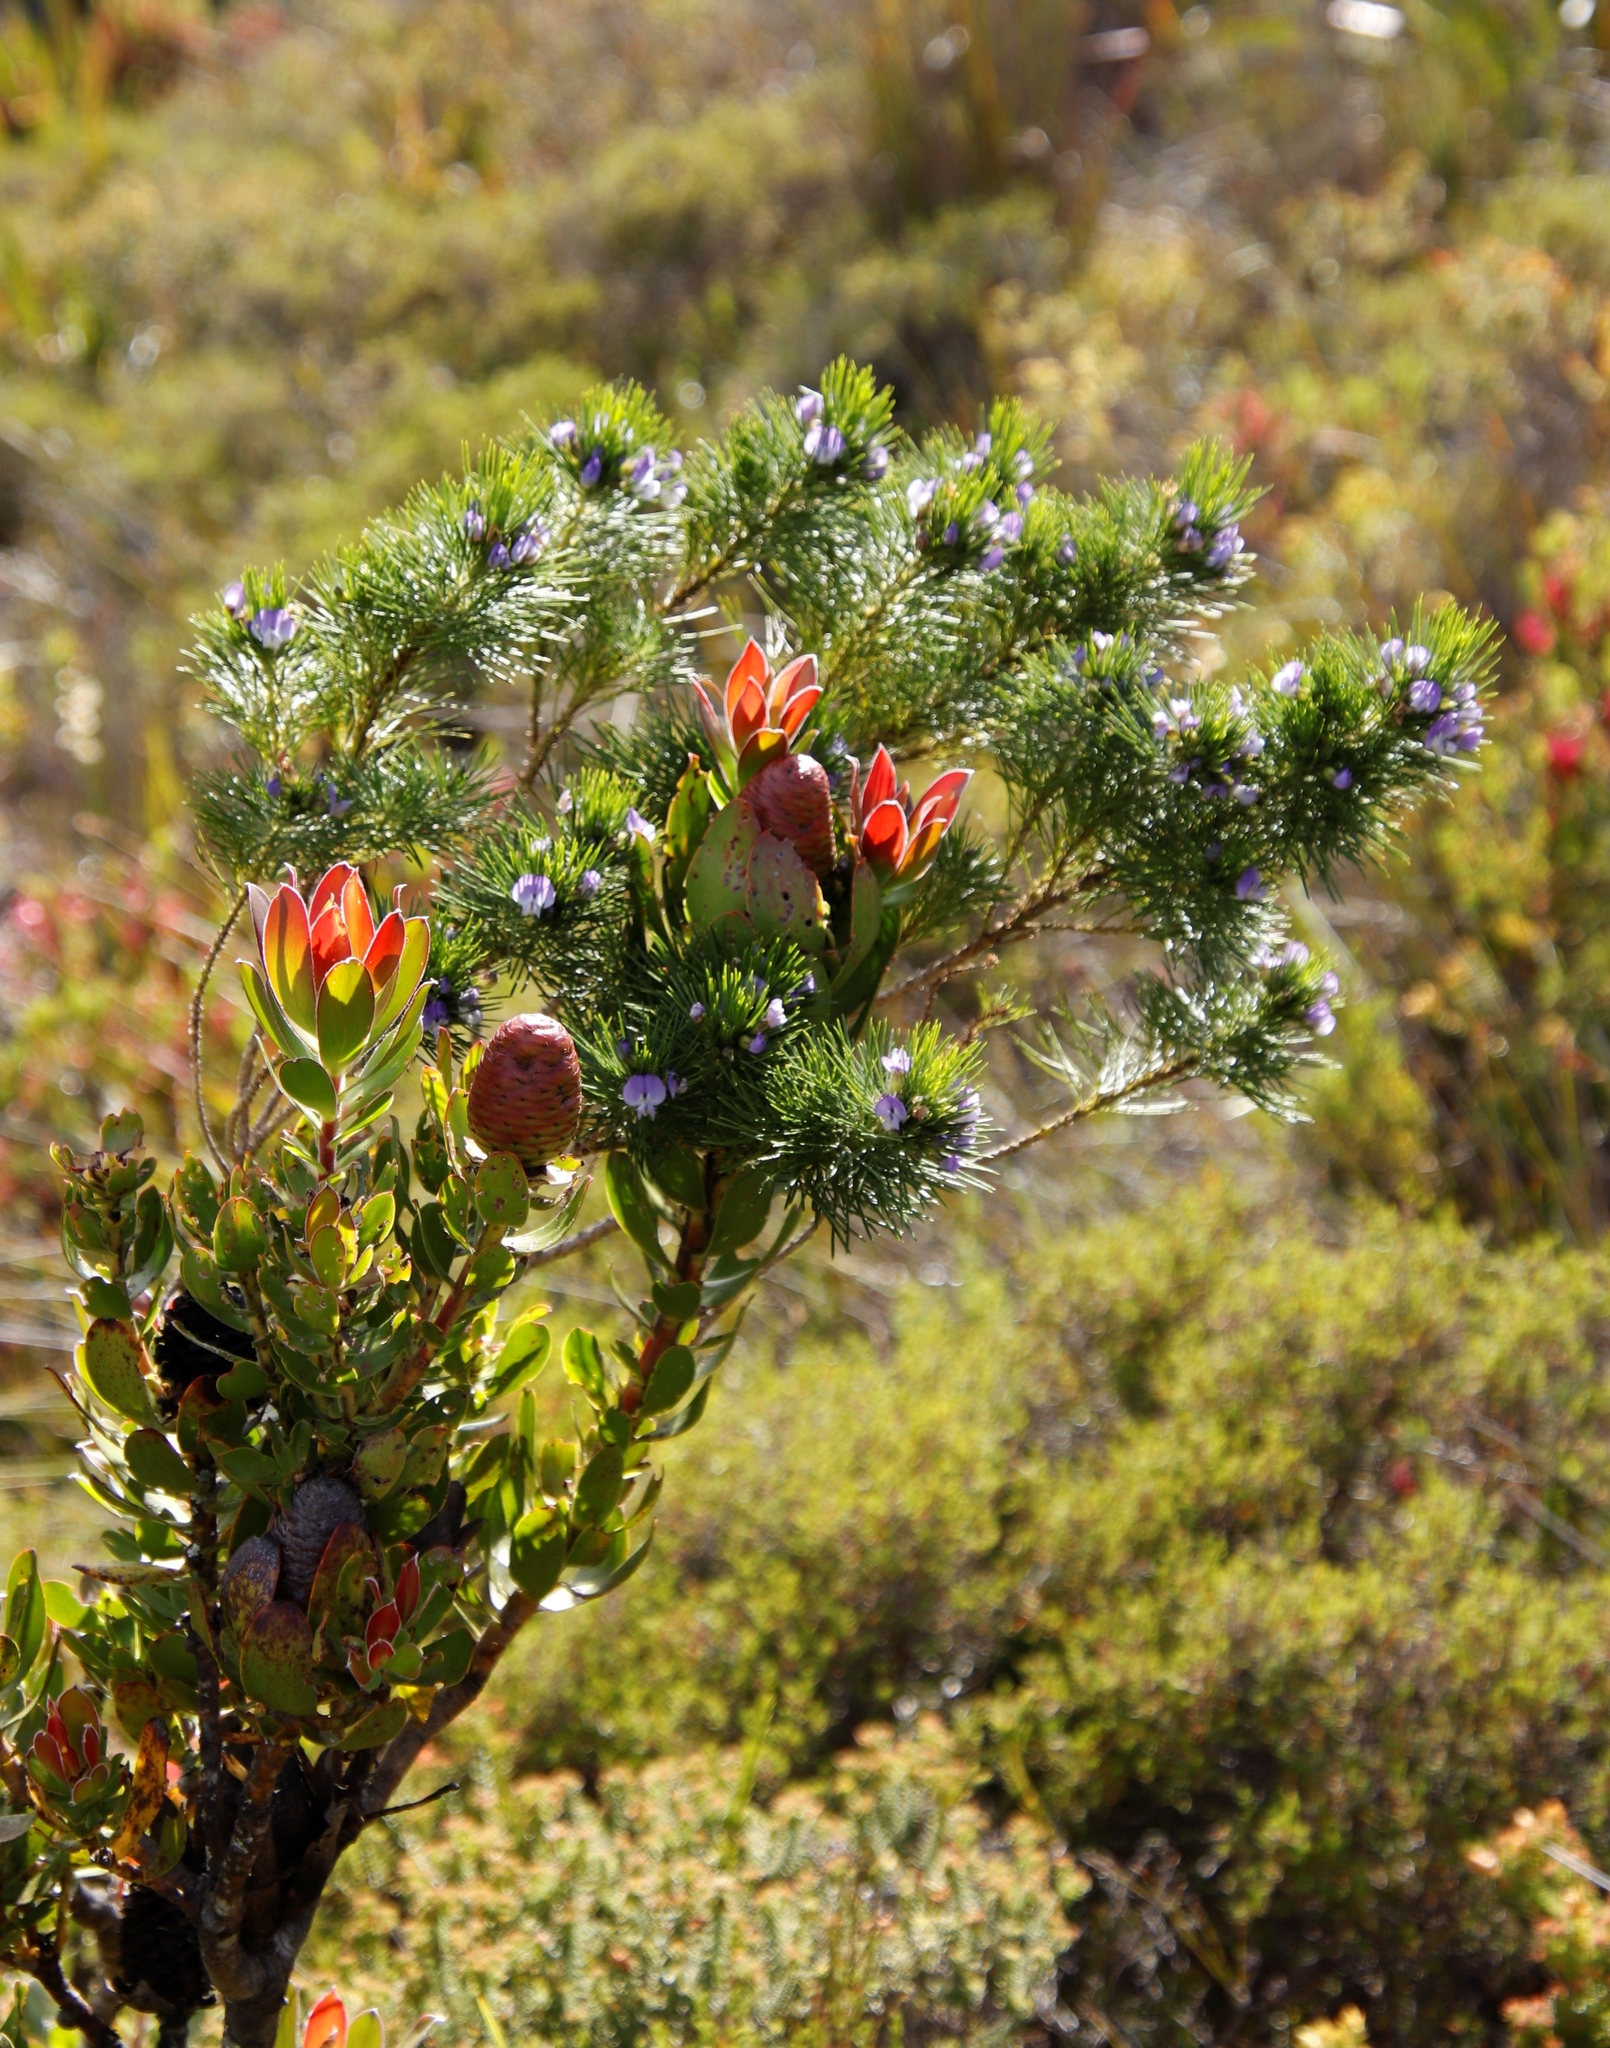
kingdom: Plantae
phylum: Tracheophyta
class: Magnoliopsida
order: Fabales
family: Fabaceae
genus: Psoralea
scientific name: Psoralea pinnata
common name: African scurfpea
